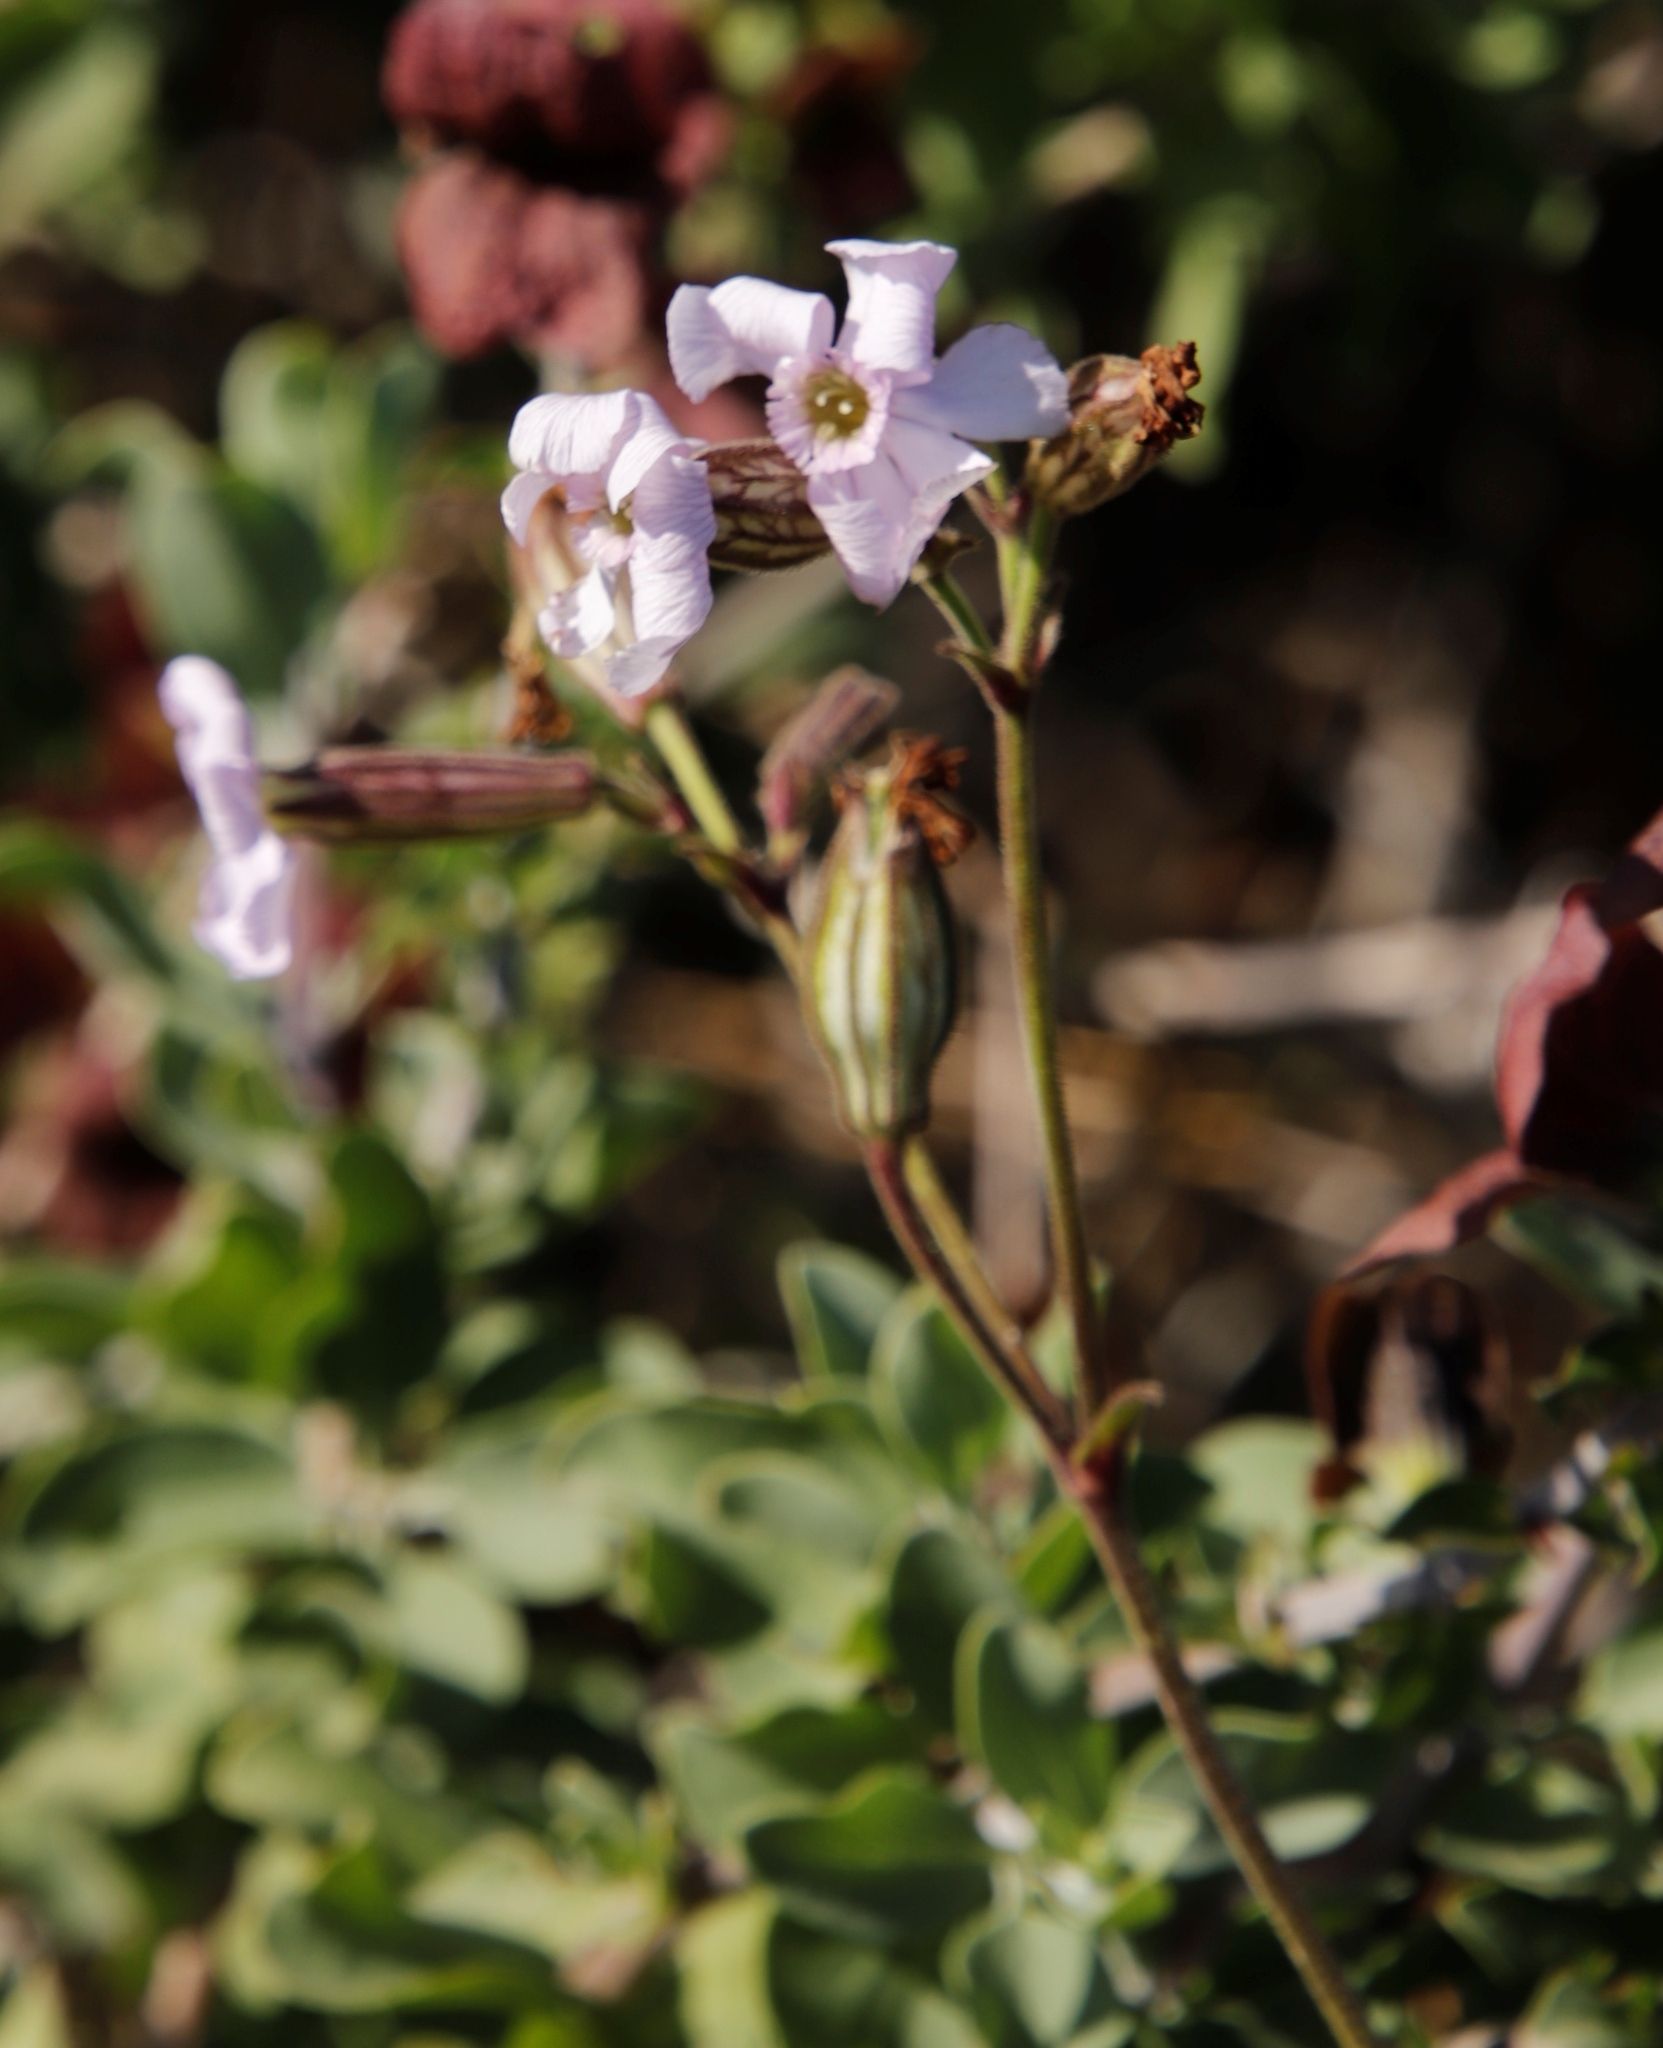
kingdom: Plantae
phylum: Tracheophyta
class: Magnoliopsida
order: Caryophyllales
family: Caryophyllaceae
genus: Silene
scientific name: Silene rigens
